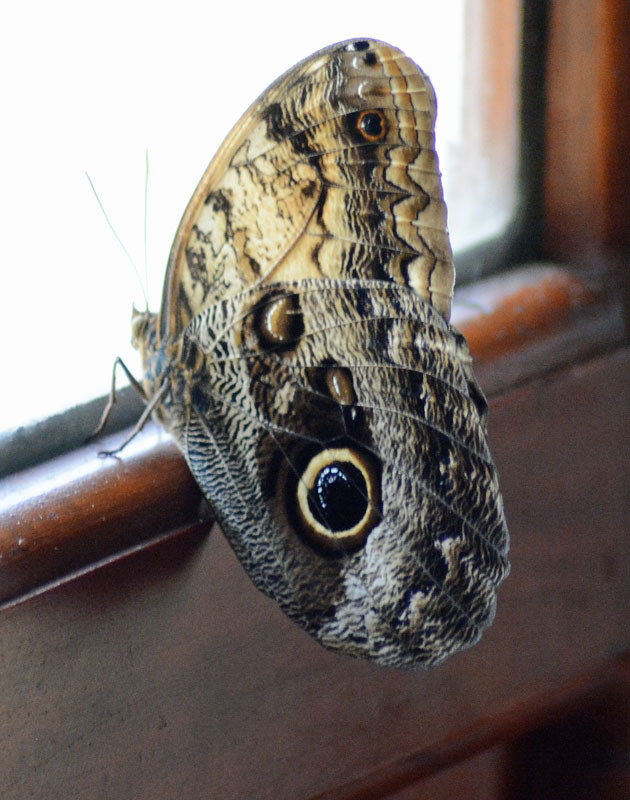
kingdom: Animalia
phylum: Arthropoda
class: Insecta
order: Lepidoptera
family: Nymphalidae
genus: Caligo
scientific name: Caligo telamonius
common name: Pale owl-butterfly
